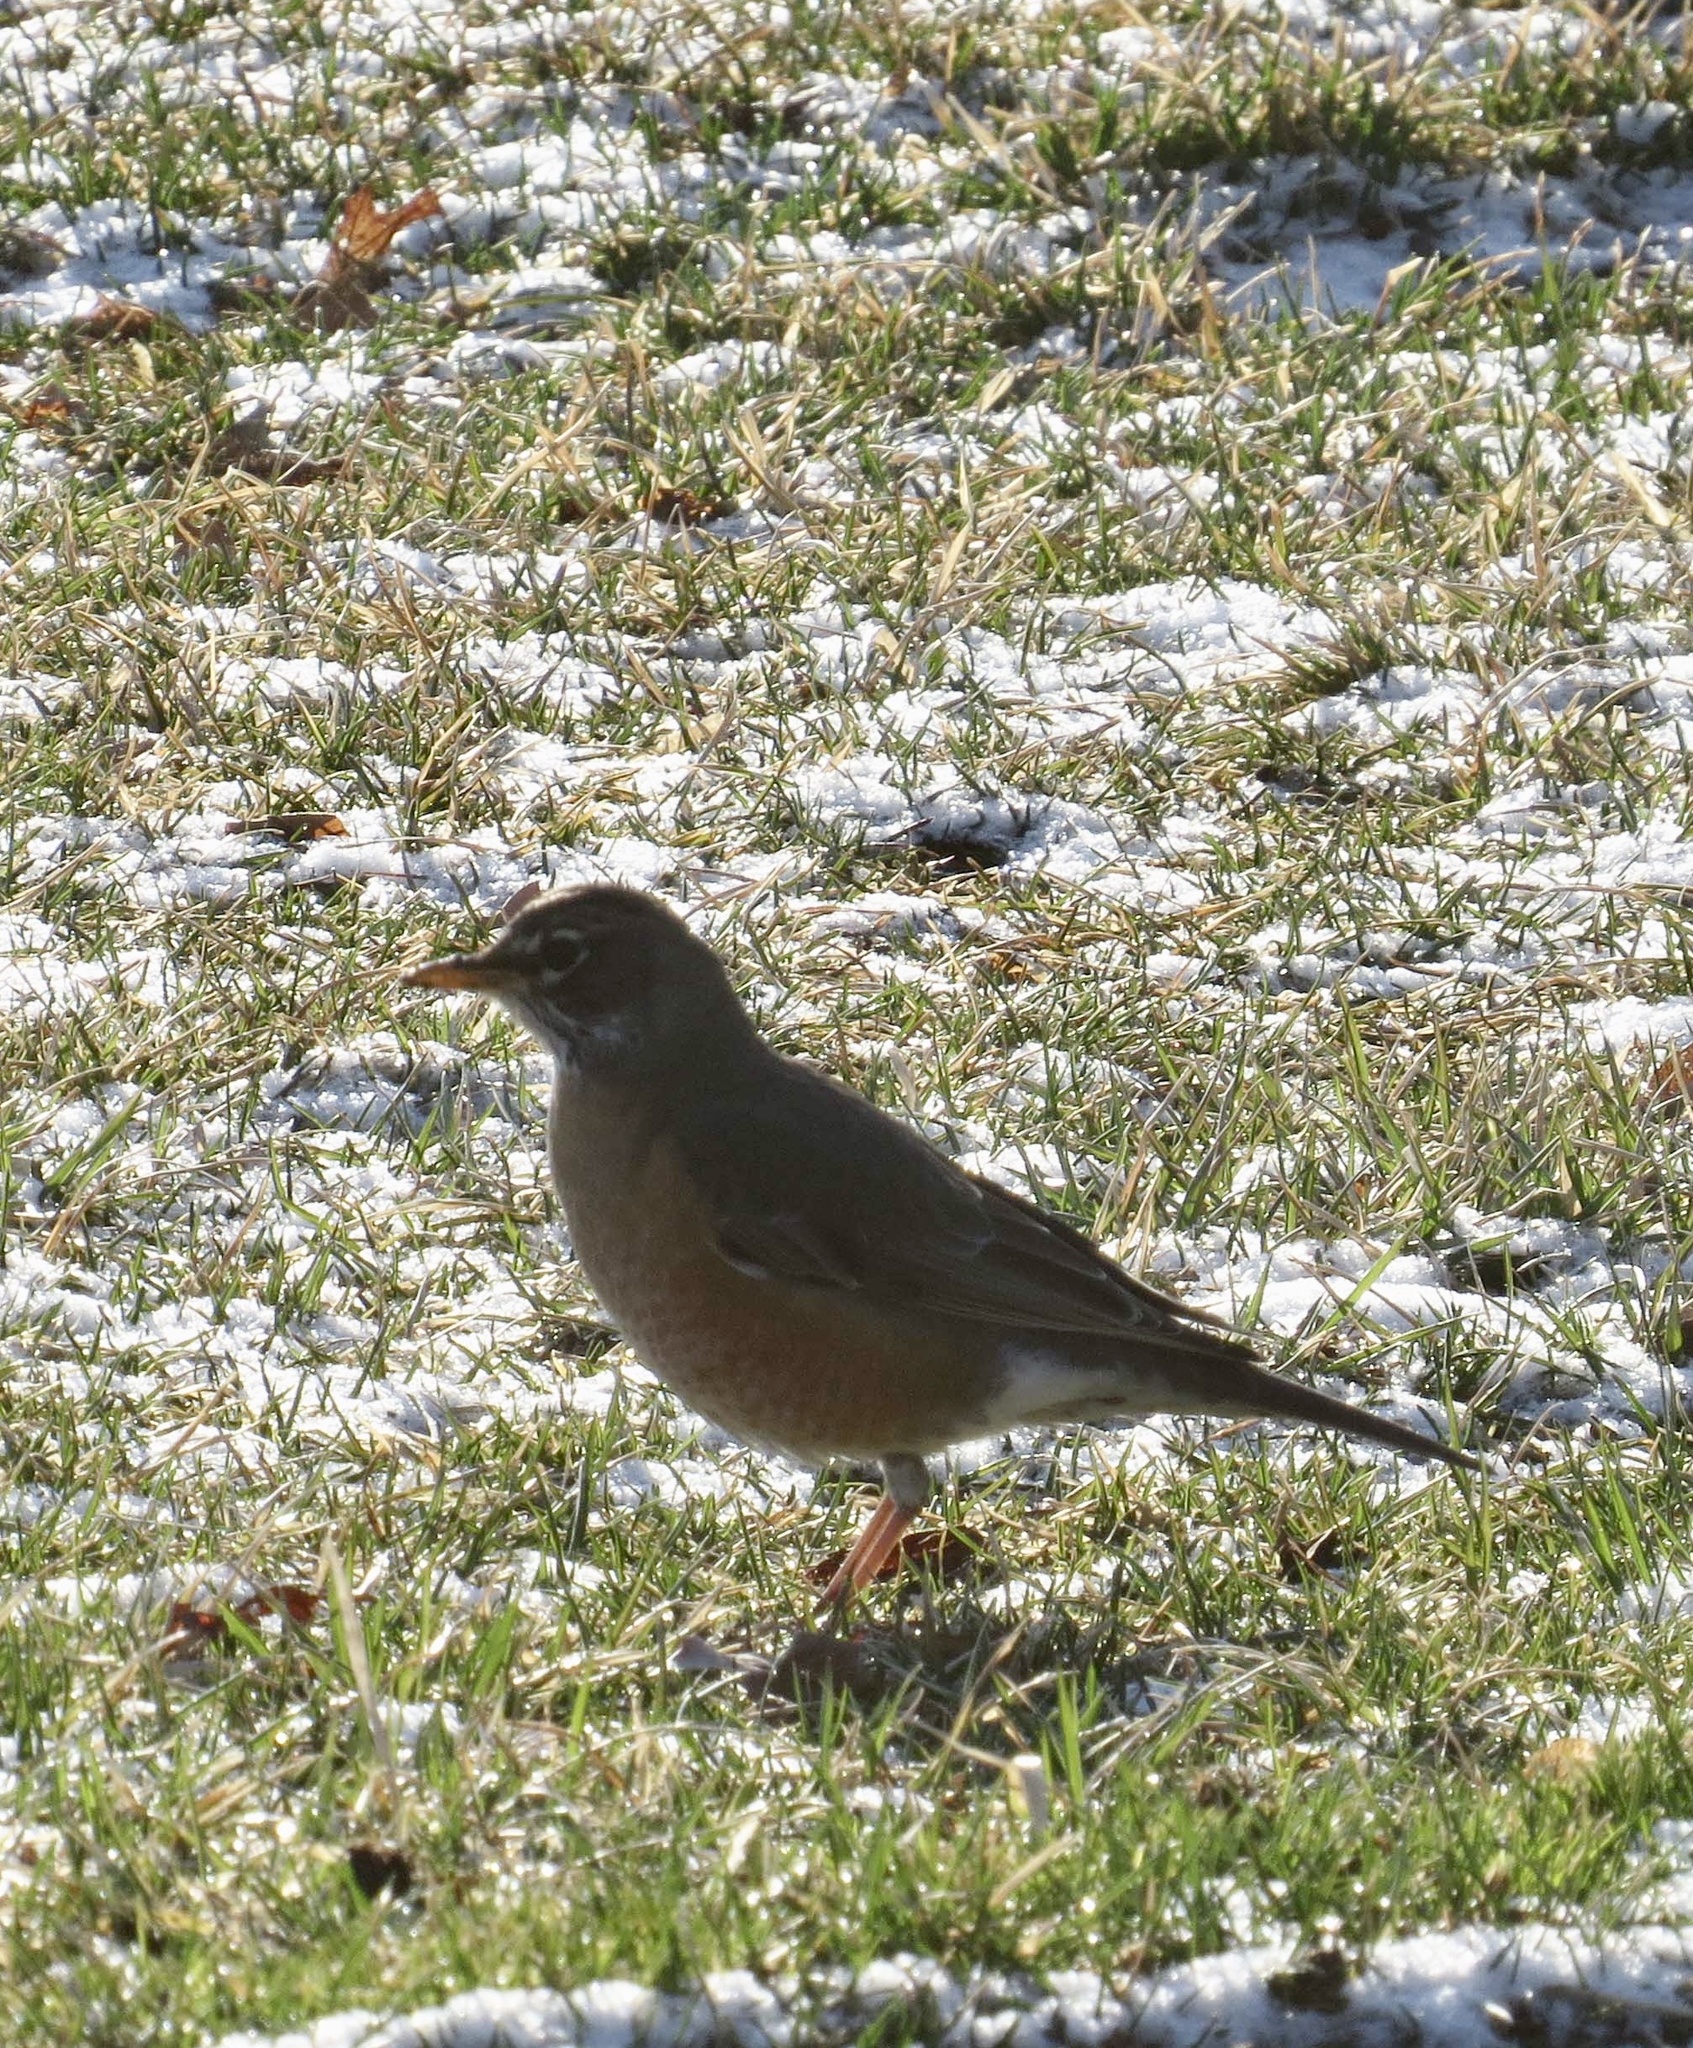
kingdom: Animalia
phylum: Chordata
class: Aves
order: Passeriformes
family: Turdidae
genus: Turdus
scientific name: Turdus migratorius
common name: American robin
